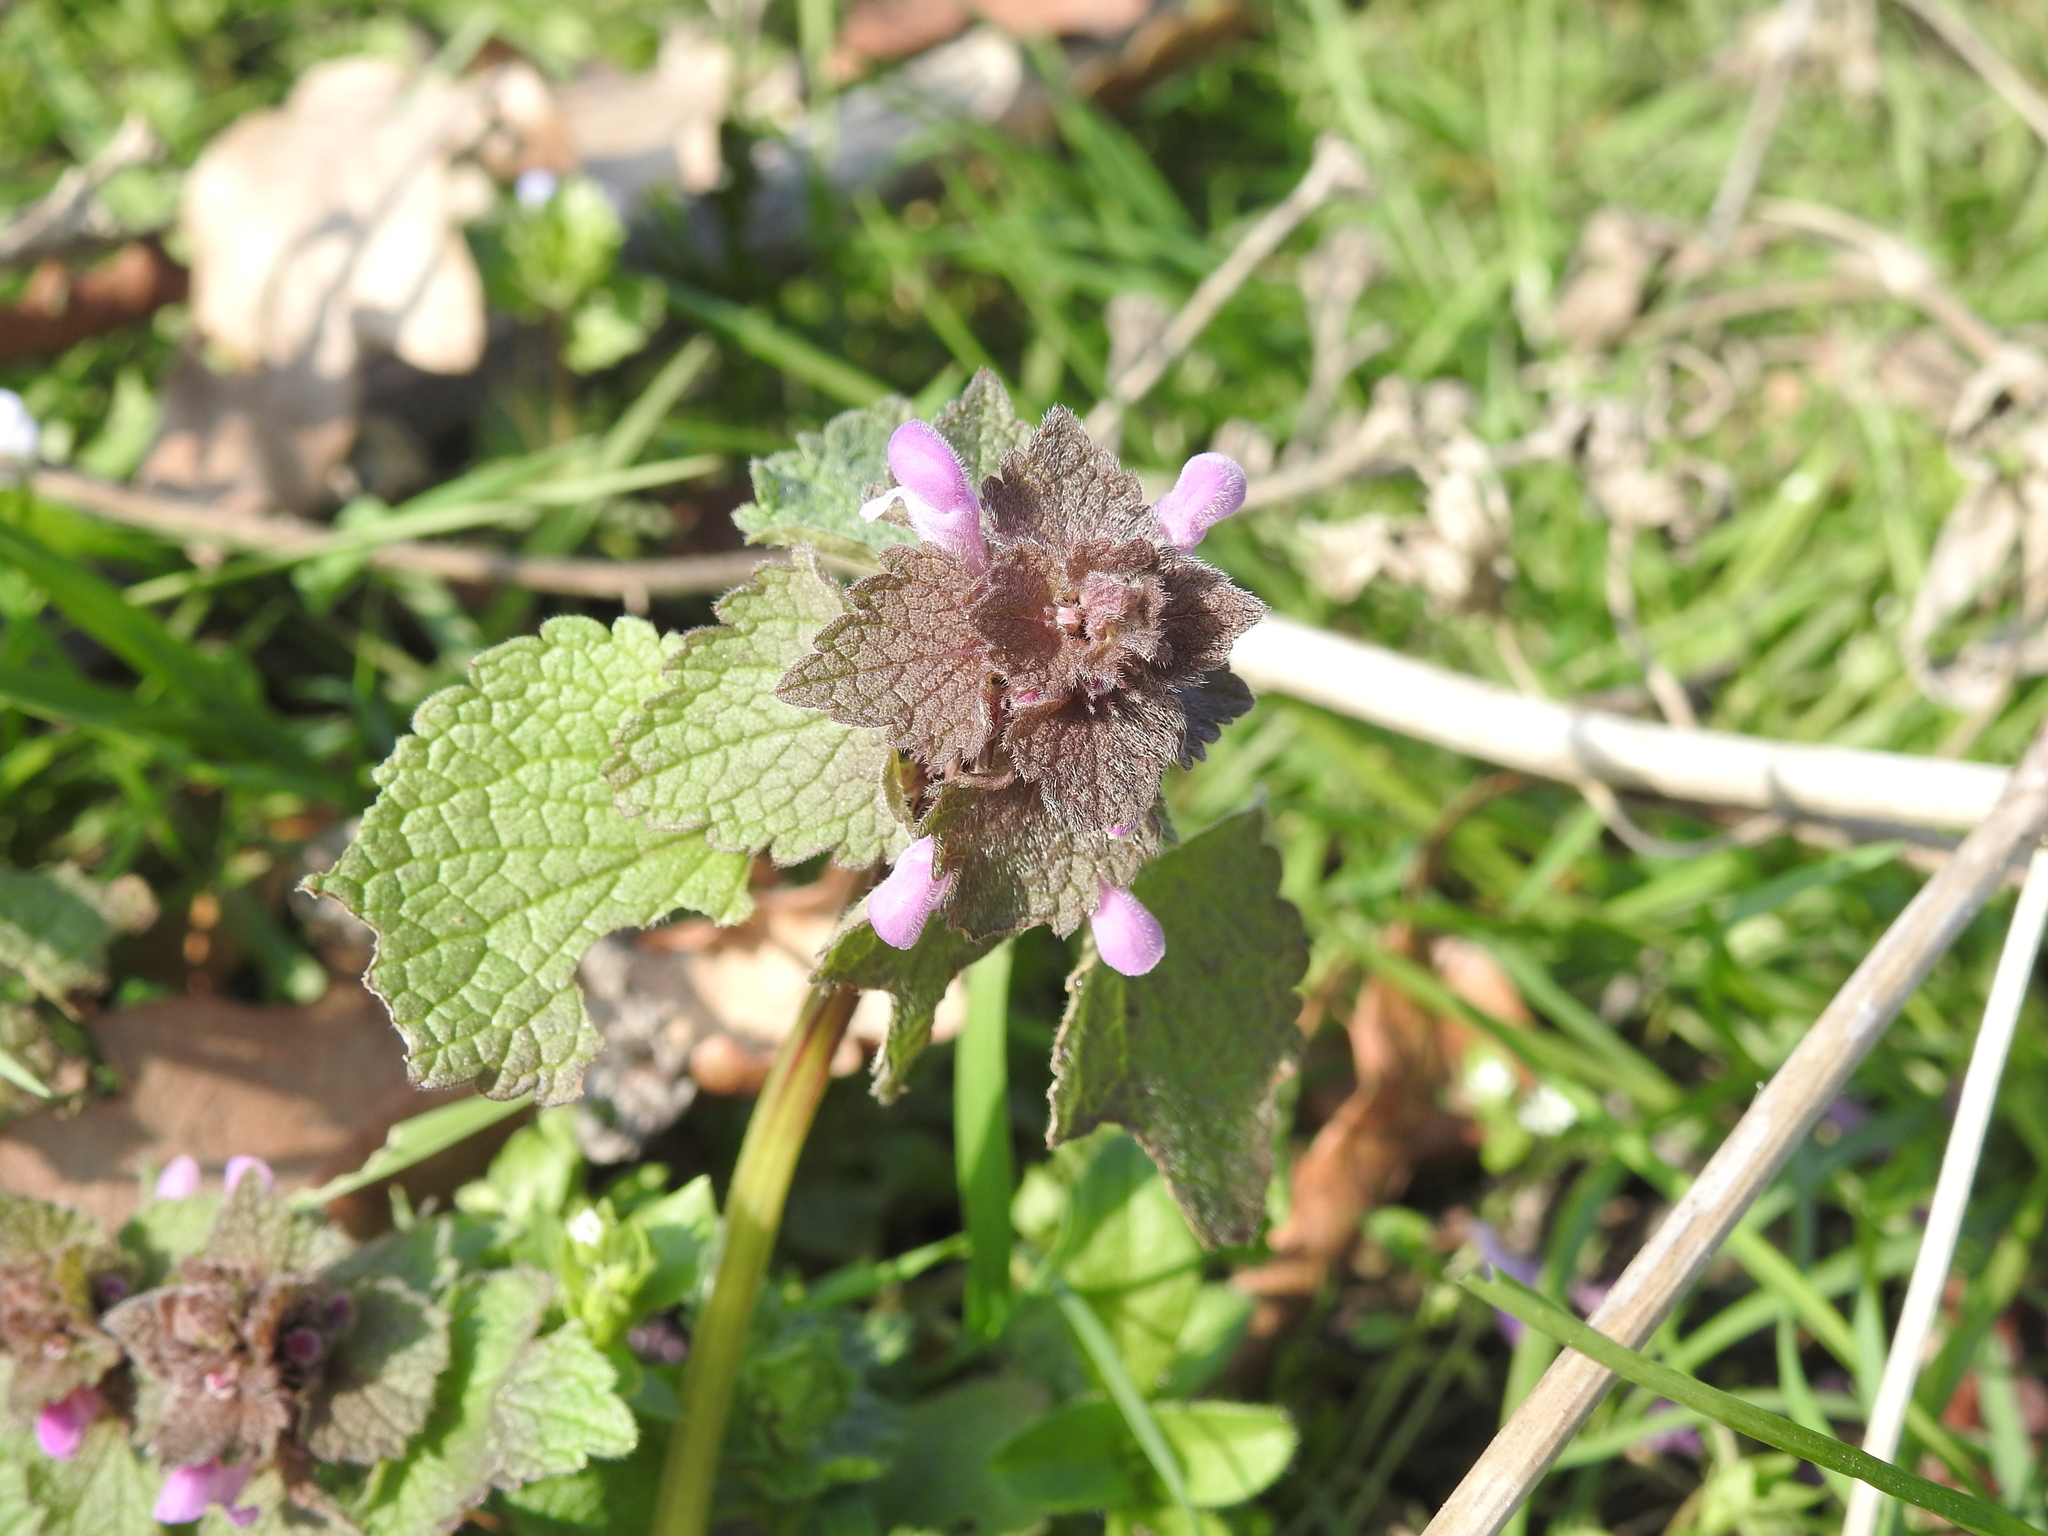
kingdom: Plantae
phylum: Tracheophyta
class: Magnoliopsida
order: Lamiales
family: Lamiaceae
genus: Lamium
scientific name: Lamium purpureum
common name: Red dead-nettle
